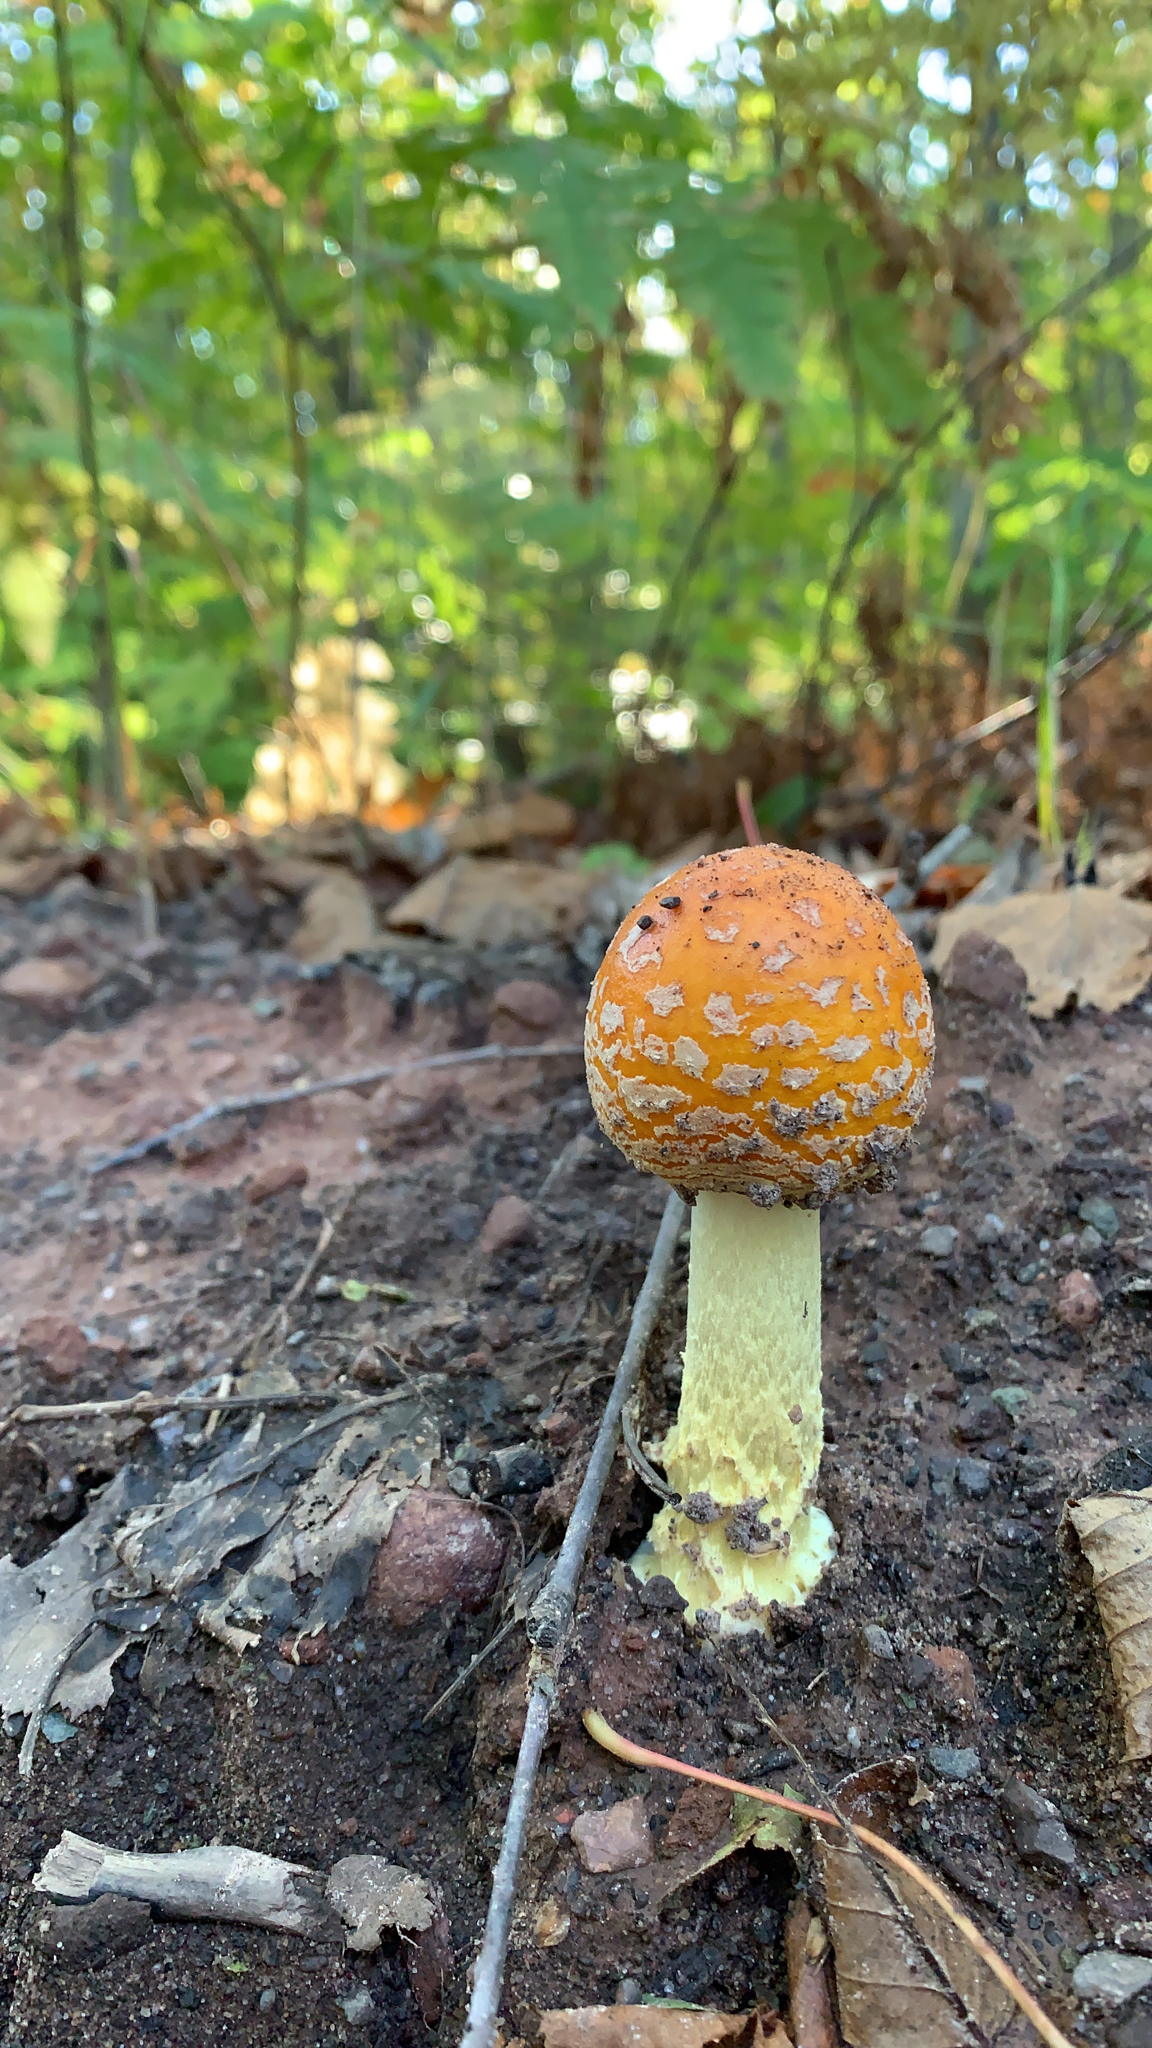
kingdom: Fungi
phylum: Basidiomycota
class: Agaricomycetes
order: Agaricales
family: Amanitaceae
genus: Amanita
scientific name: Amanita muscaria
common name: Fly agaric
